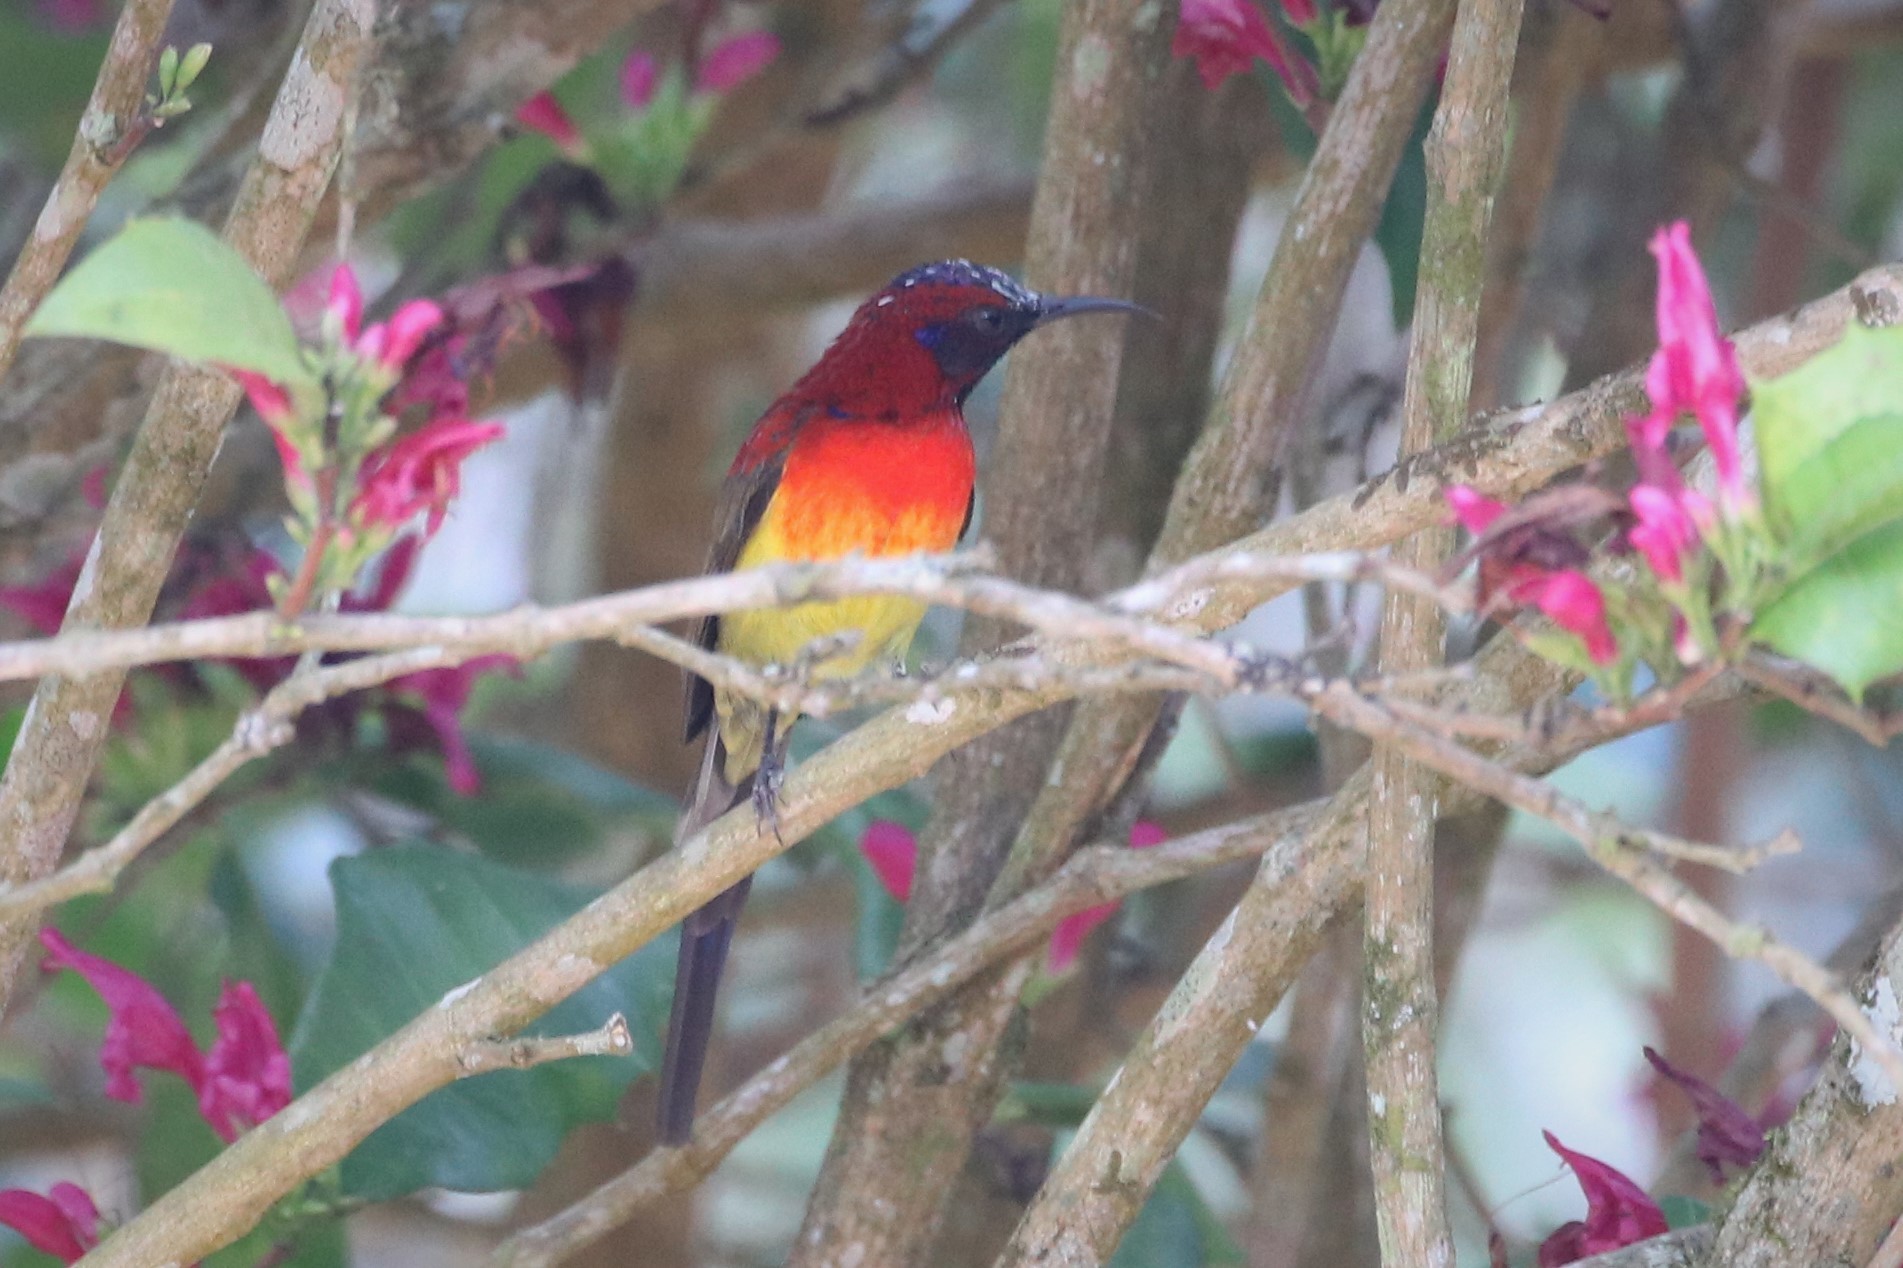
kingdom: Animalia
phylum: Chordata
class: Aves
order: Passeriformes
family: Nectariniidae
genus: Aethopyga
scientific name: Aethopyga gouldiae
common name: Mrs. gould's sunbird
